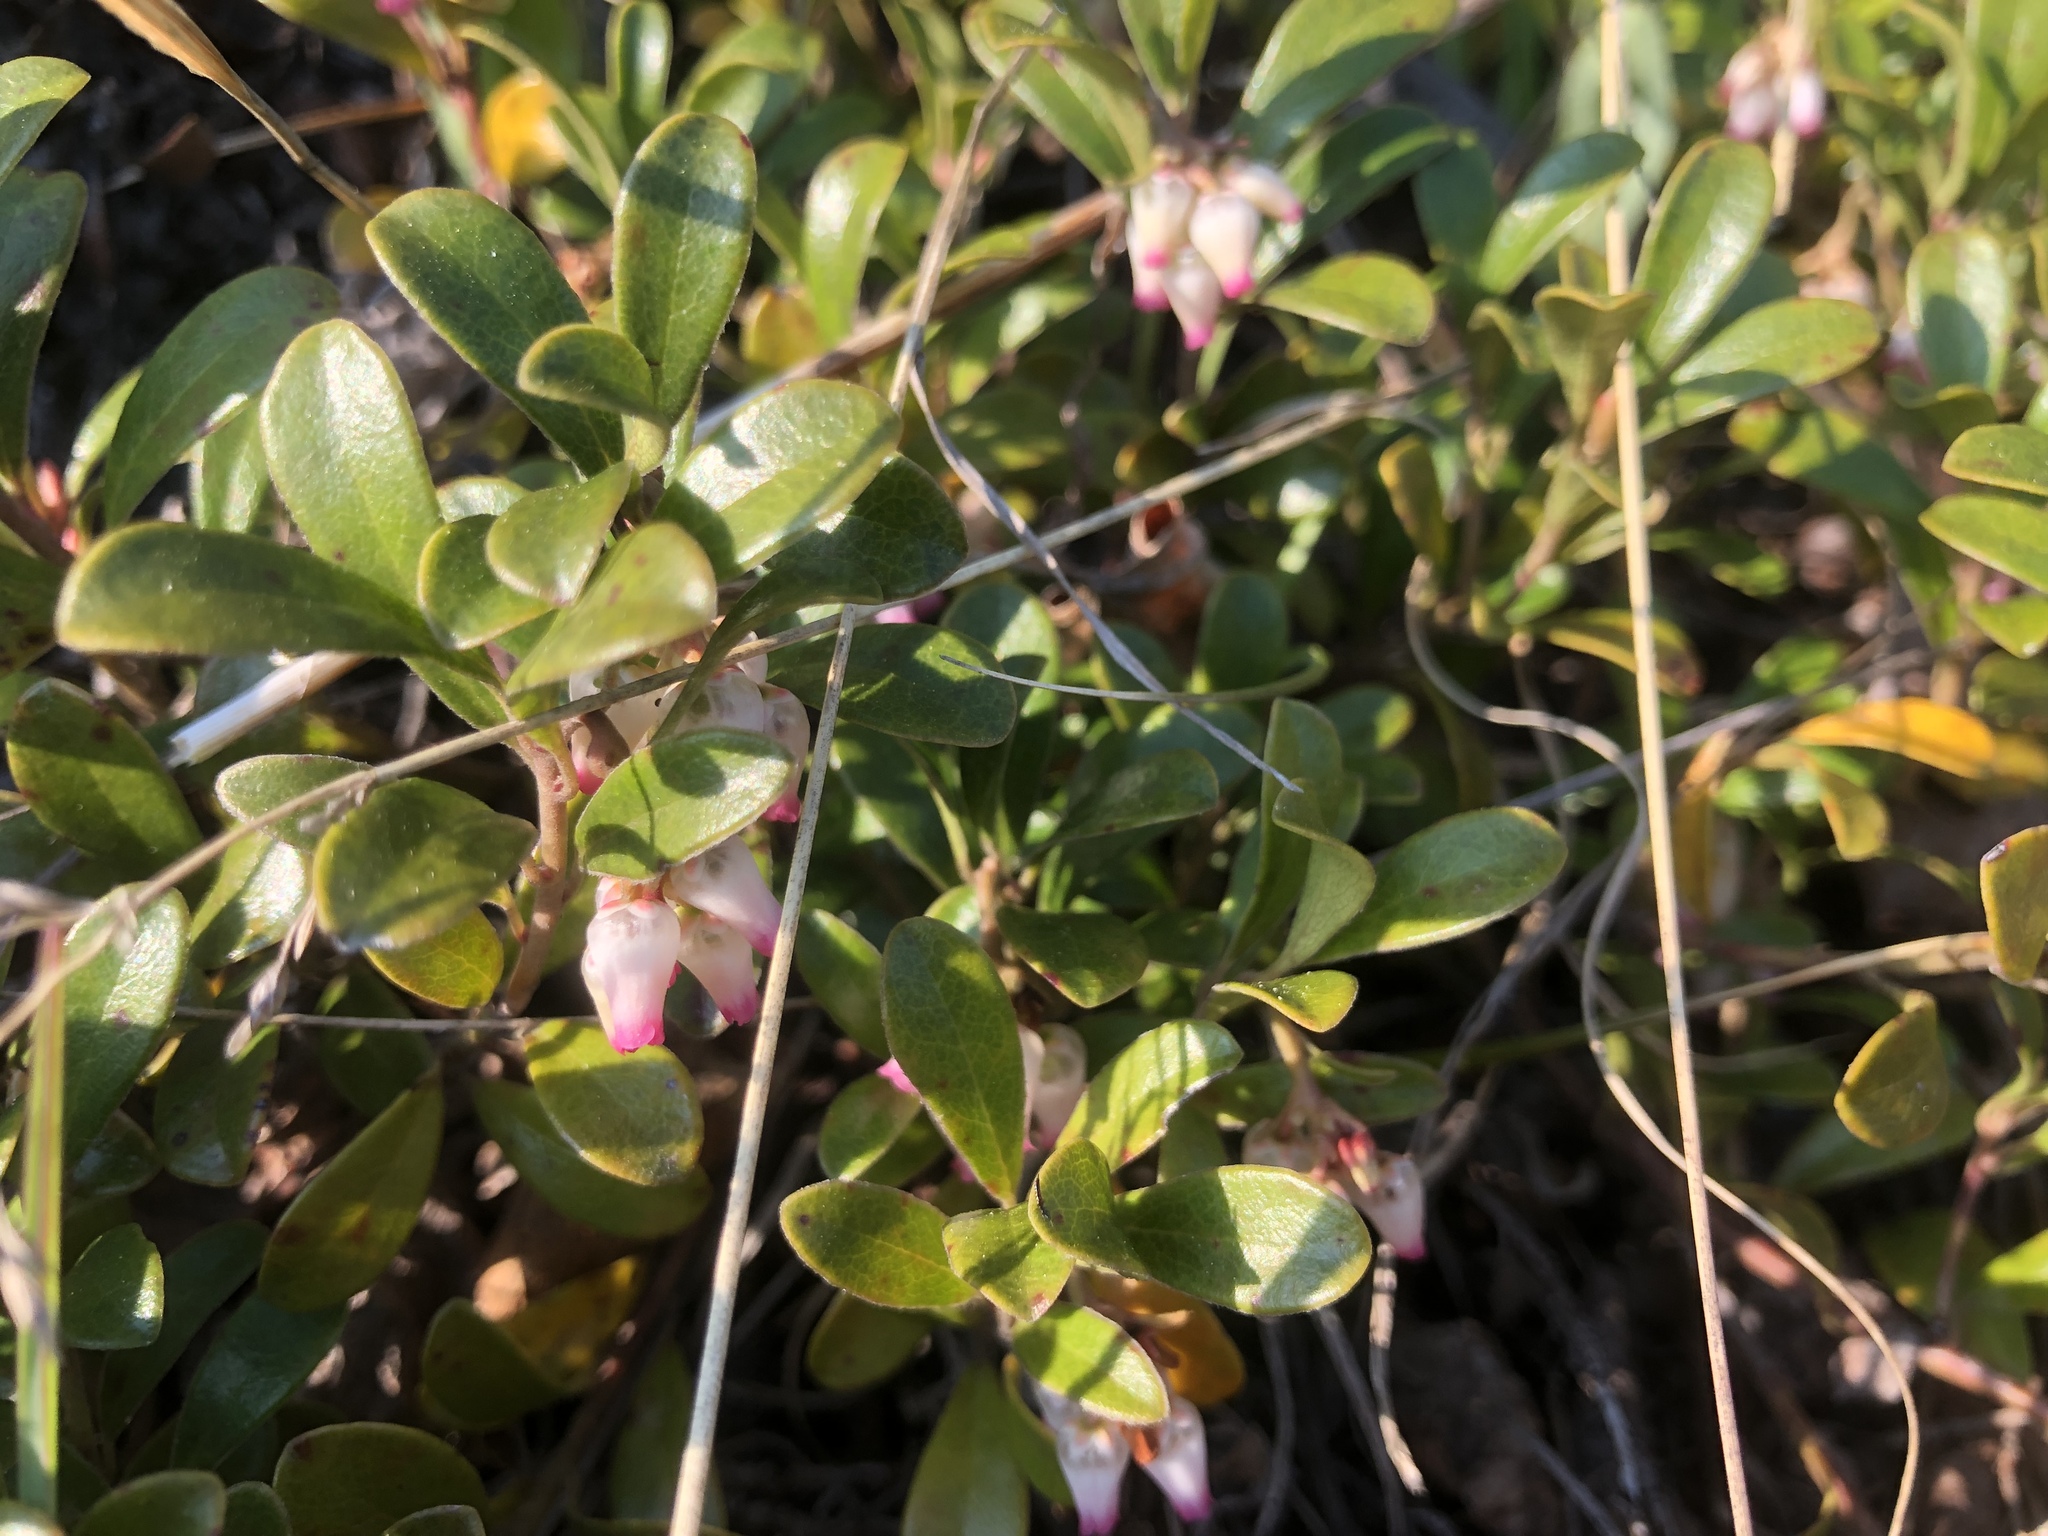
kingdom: Plantae
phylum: Tracheophyta
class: Magnoliopsida
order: Ericales
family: Ericaceae
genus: Arctostaphylos
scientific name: Arctostaphylos uva-ursi
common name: Bearberry
